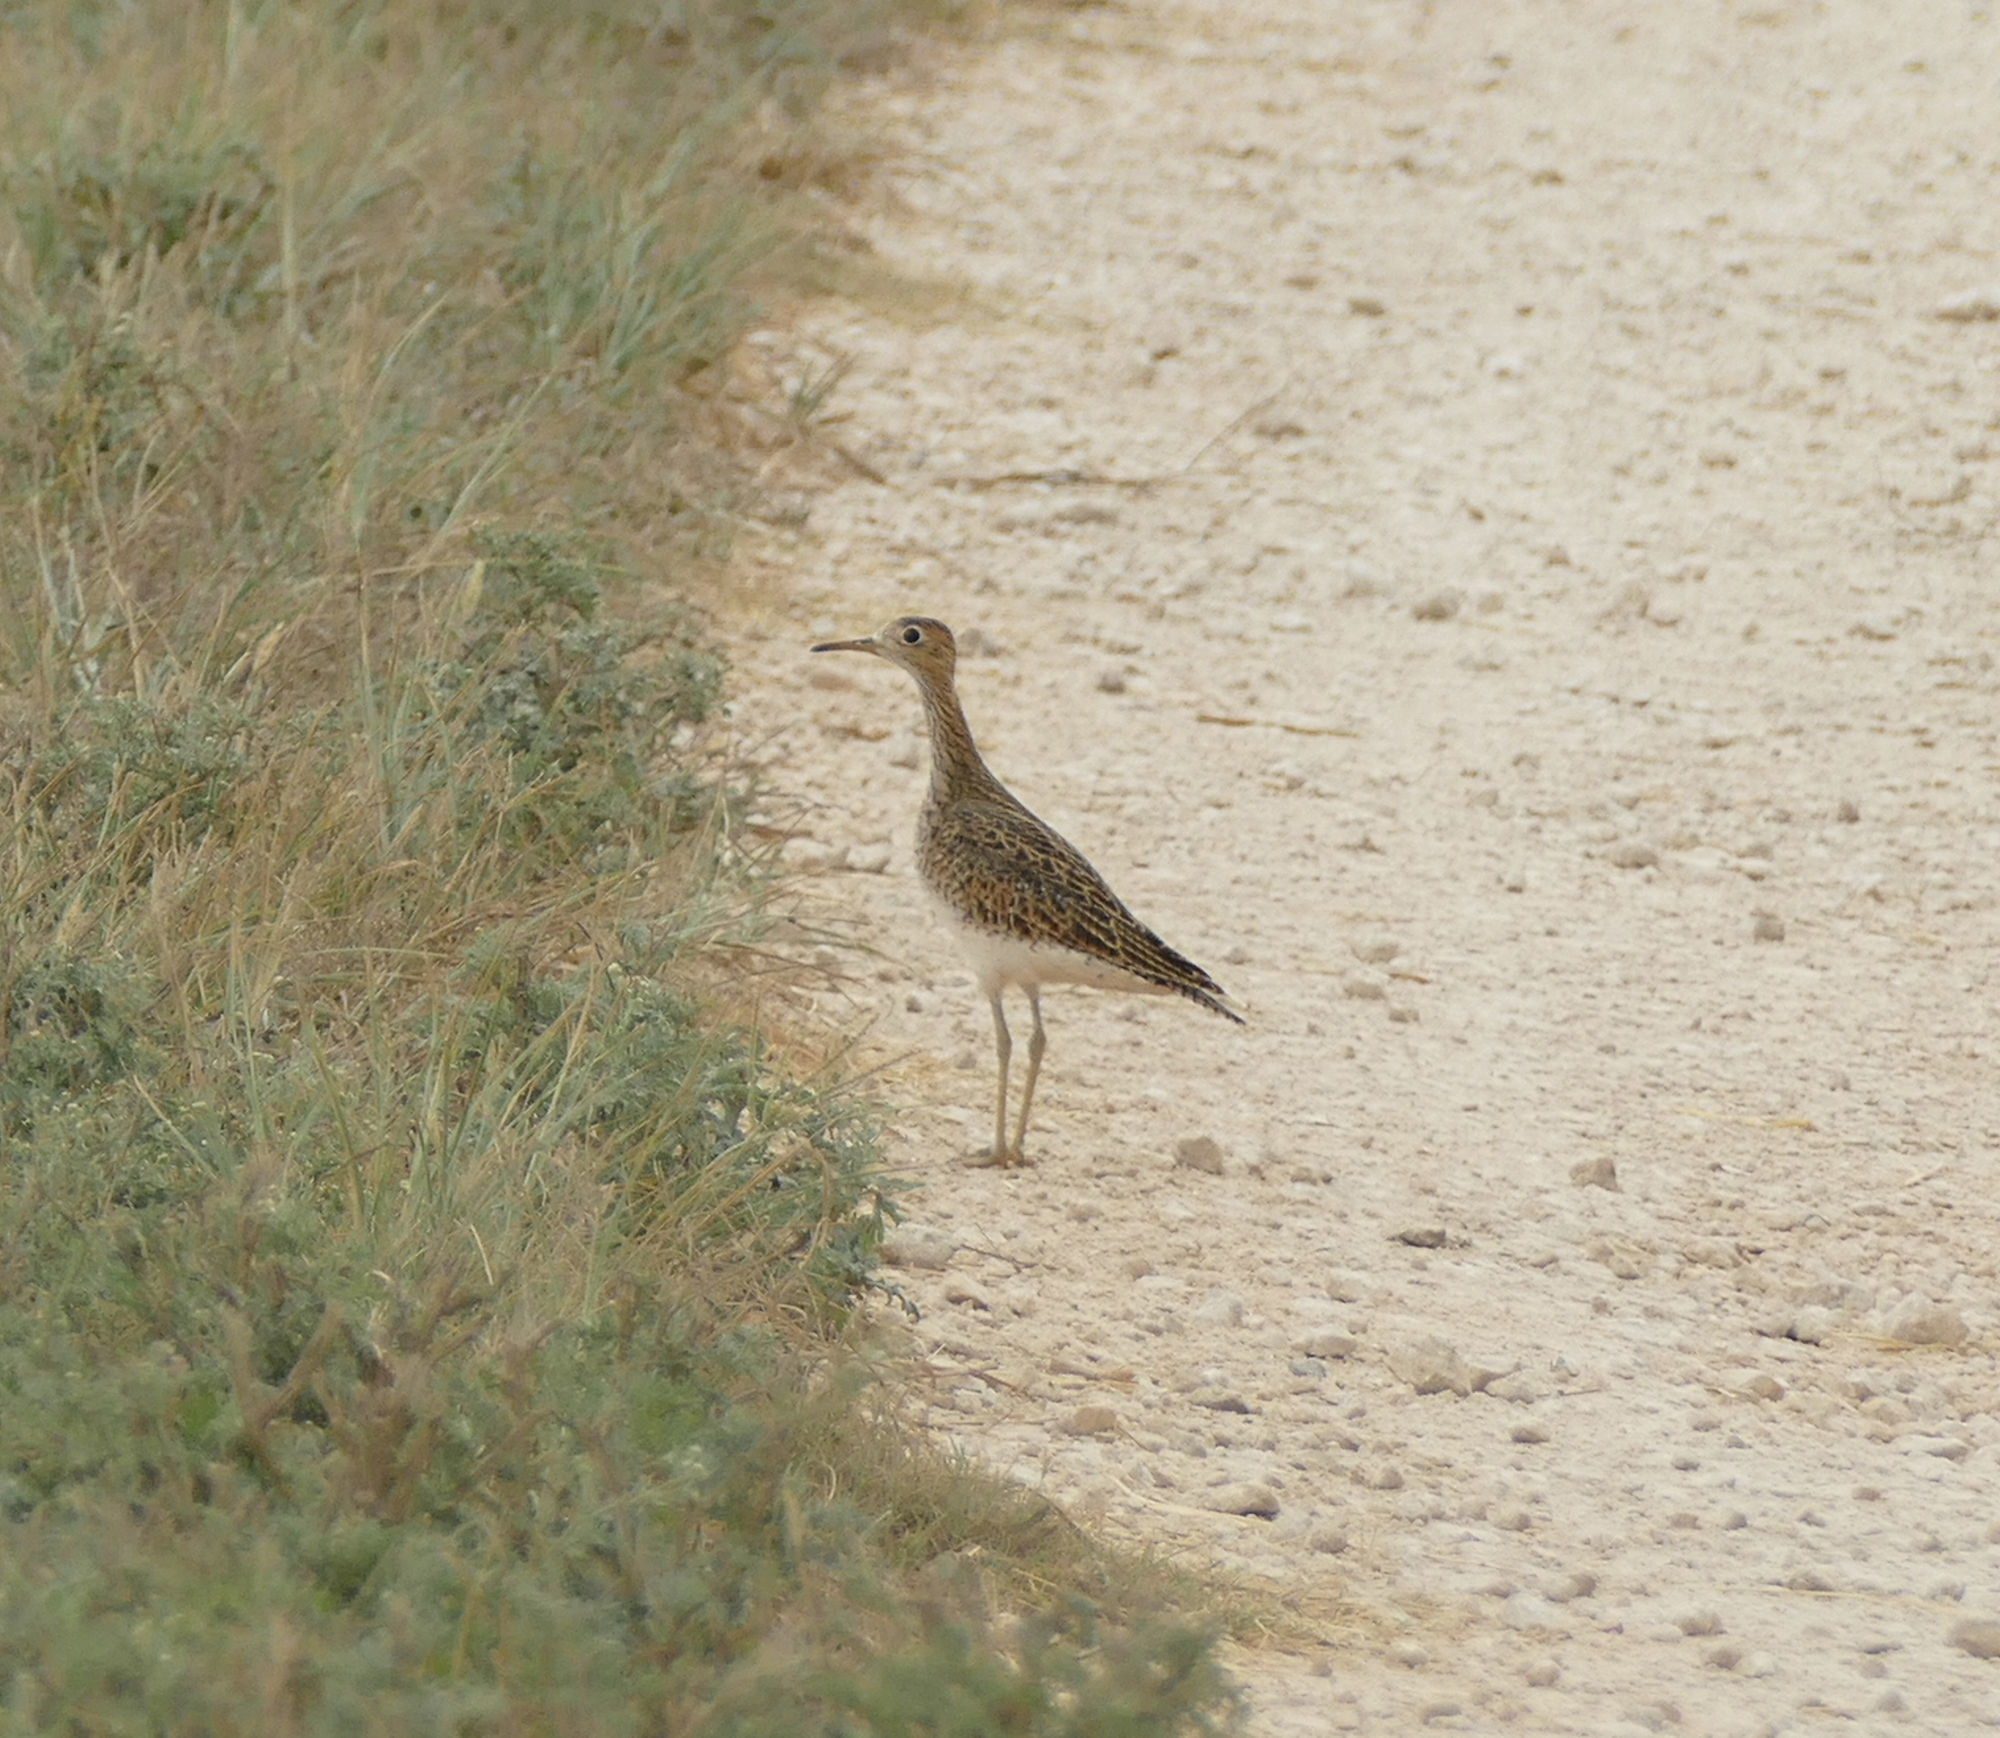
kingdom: Animalia
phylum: Chordata
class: Aves
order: Charadriiformes
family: Scolopacidae
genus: Bartramia
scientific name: Bartramia longicauda
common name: Upland sandpiper
